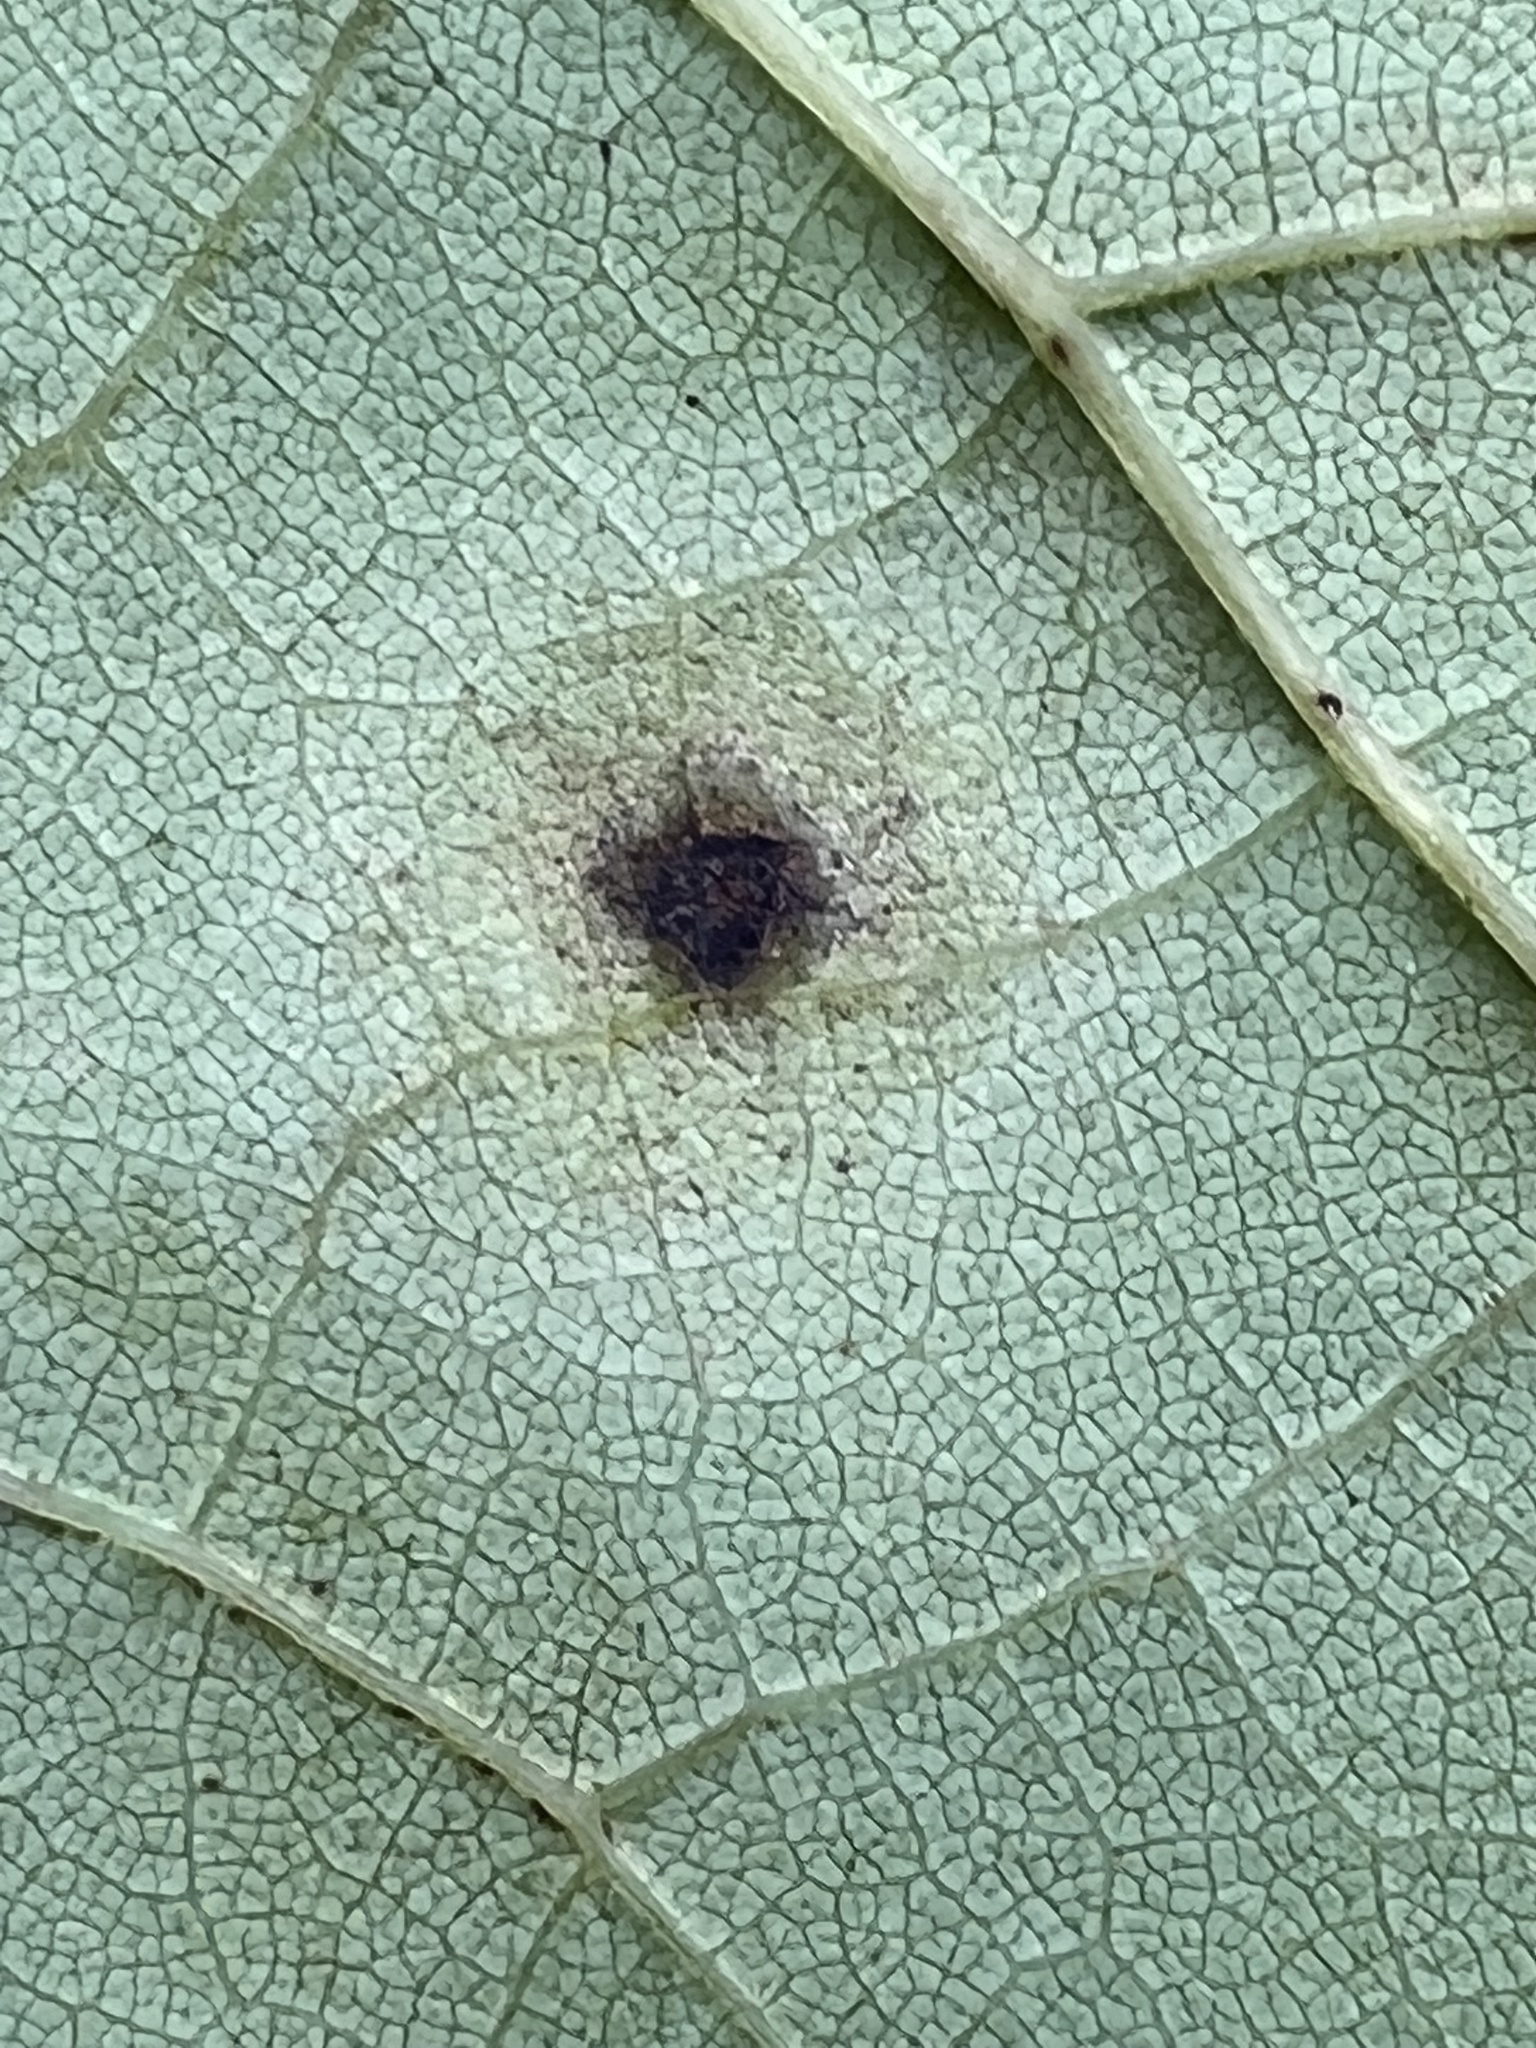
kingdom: Fungi
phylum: Ascomycota
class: Dothideomycetes
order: Mycosphaerellales
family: Mycosphaerellaceae
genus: Passalora
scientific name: Passalora cercidicola
